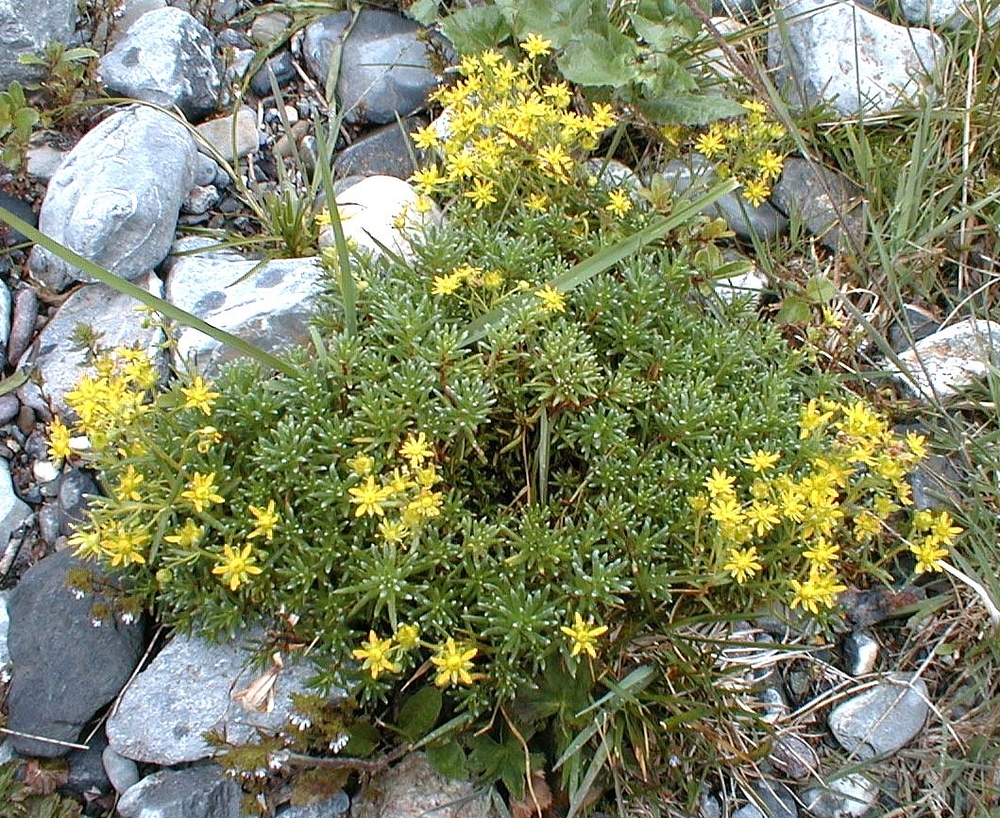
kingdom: Plantae
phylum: Tracheophyta
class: Magnoliopsida
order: Saxifragales
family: Saxifragaceae
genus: Saxifraga
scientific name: Saxifraga aizoides
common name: Yellow mountain saxifrage
